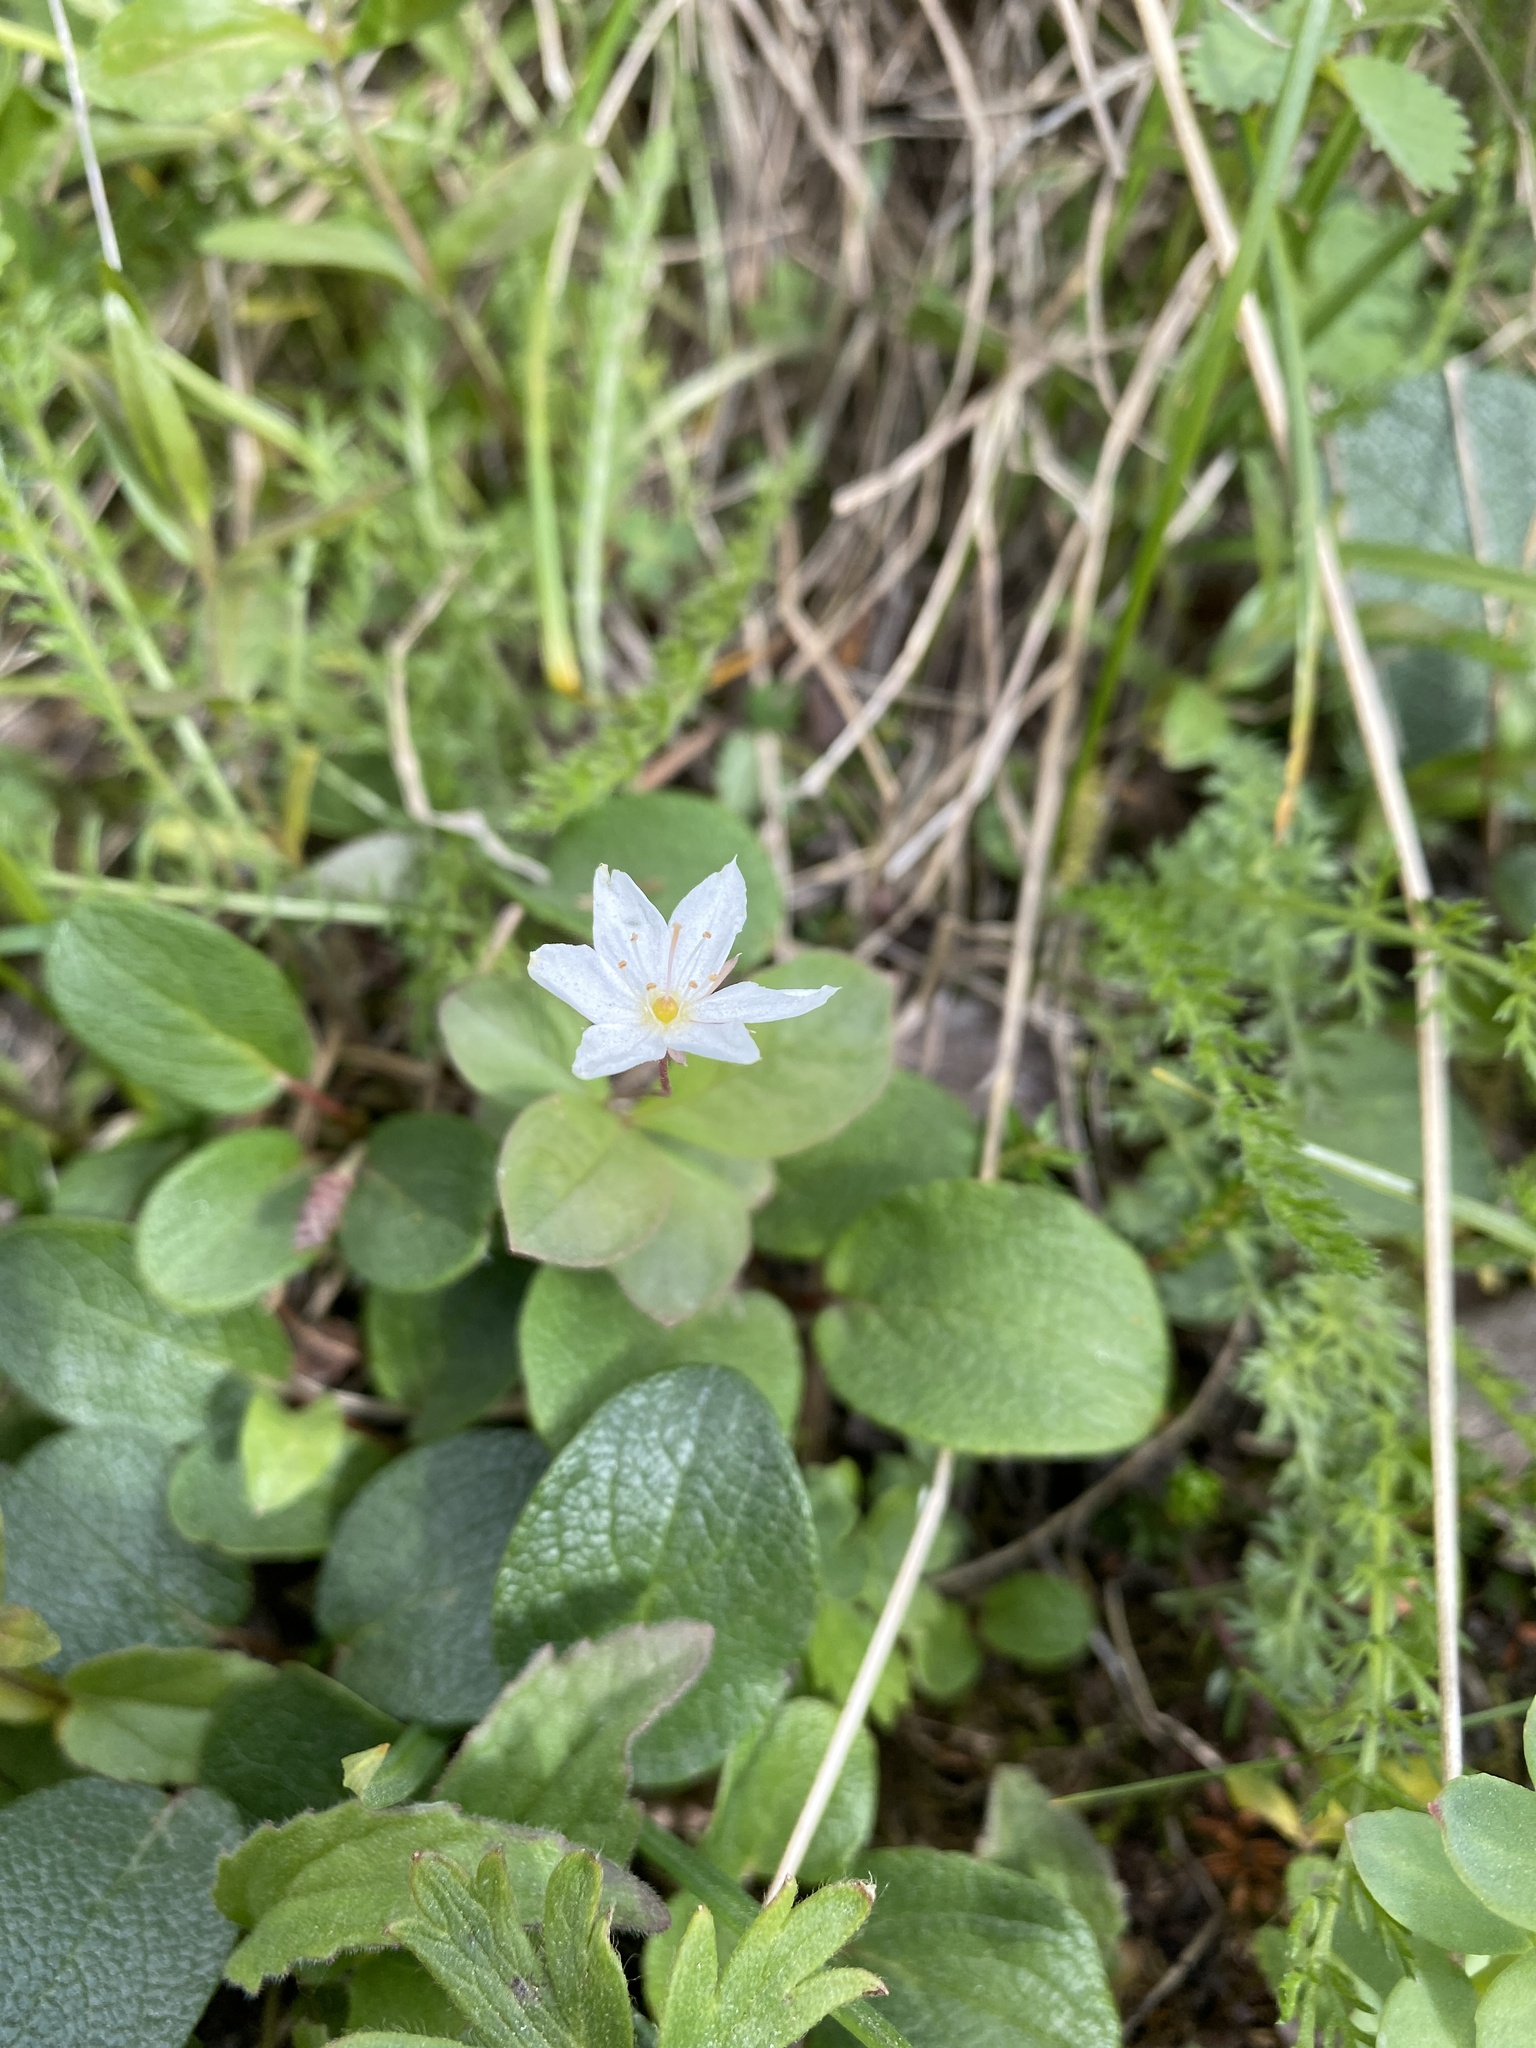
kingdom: Plantae
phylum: Tracheophyta
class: Magnoliopsida
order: Ericales
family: Primulaceae
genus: Lysimachia
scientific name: Lysimachia europaea
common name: Arctic starflower
